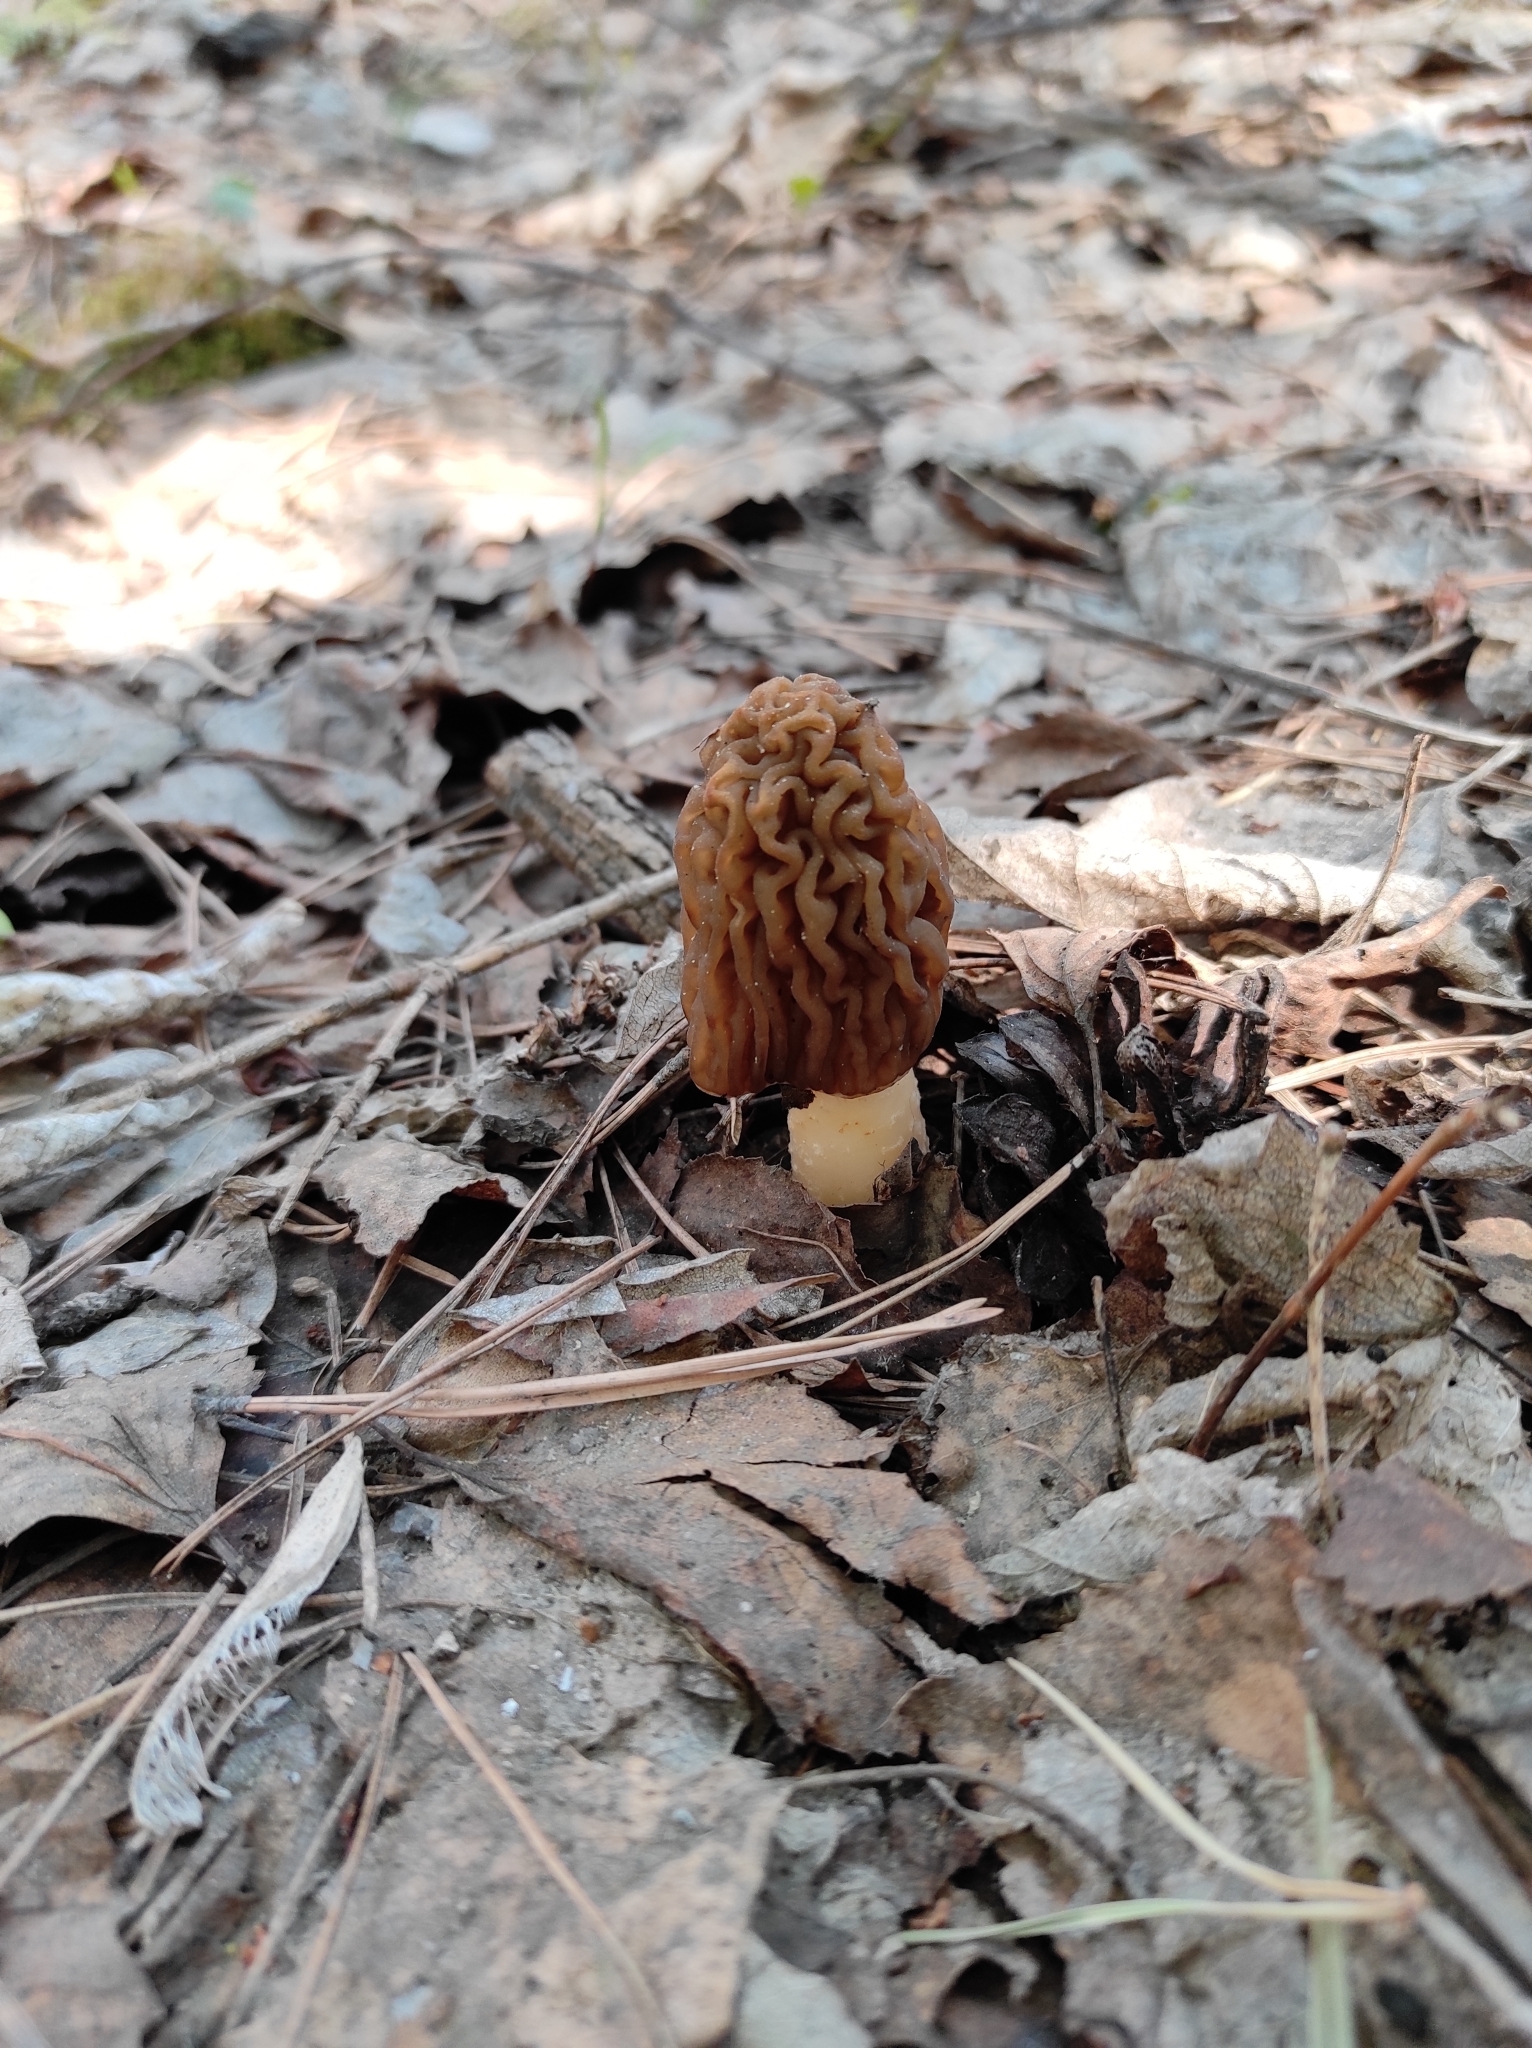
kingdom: Fungi
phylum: Ascomycota
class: Pezizomycetes
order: Pezizales
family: Morchellaceae
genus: Verpa
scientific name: Verpa bohemica
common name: Wrinkled thimble morel
